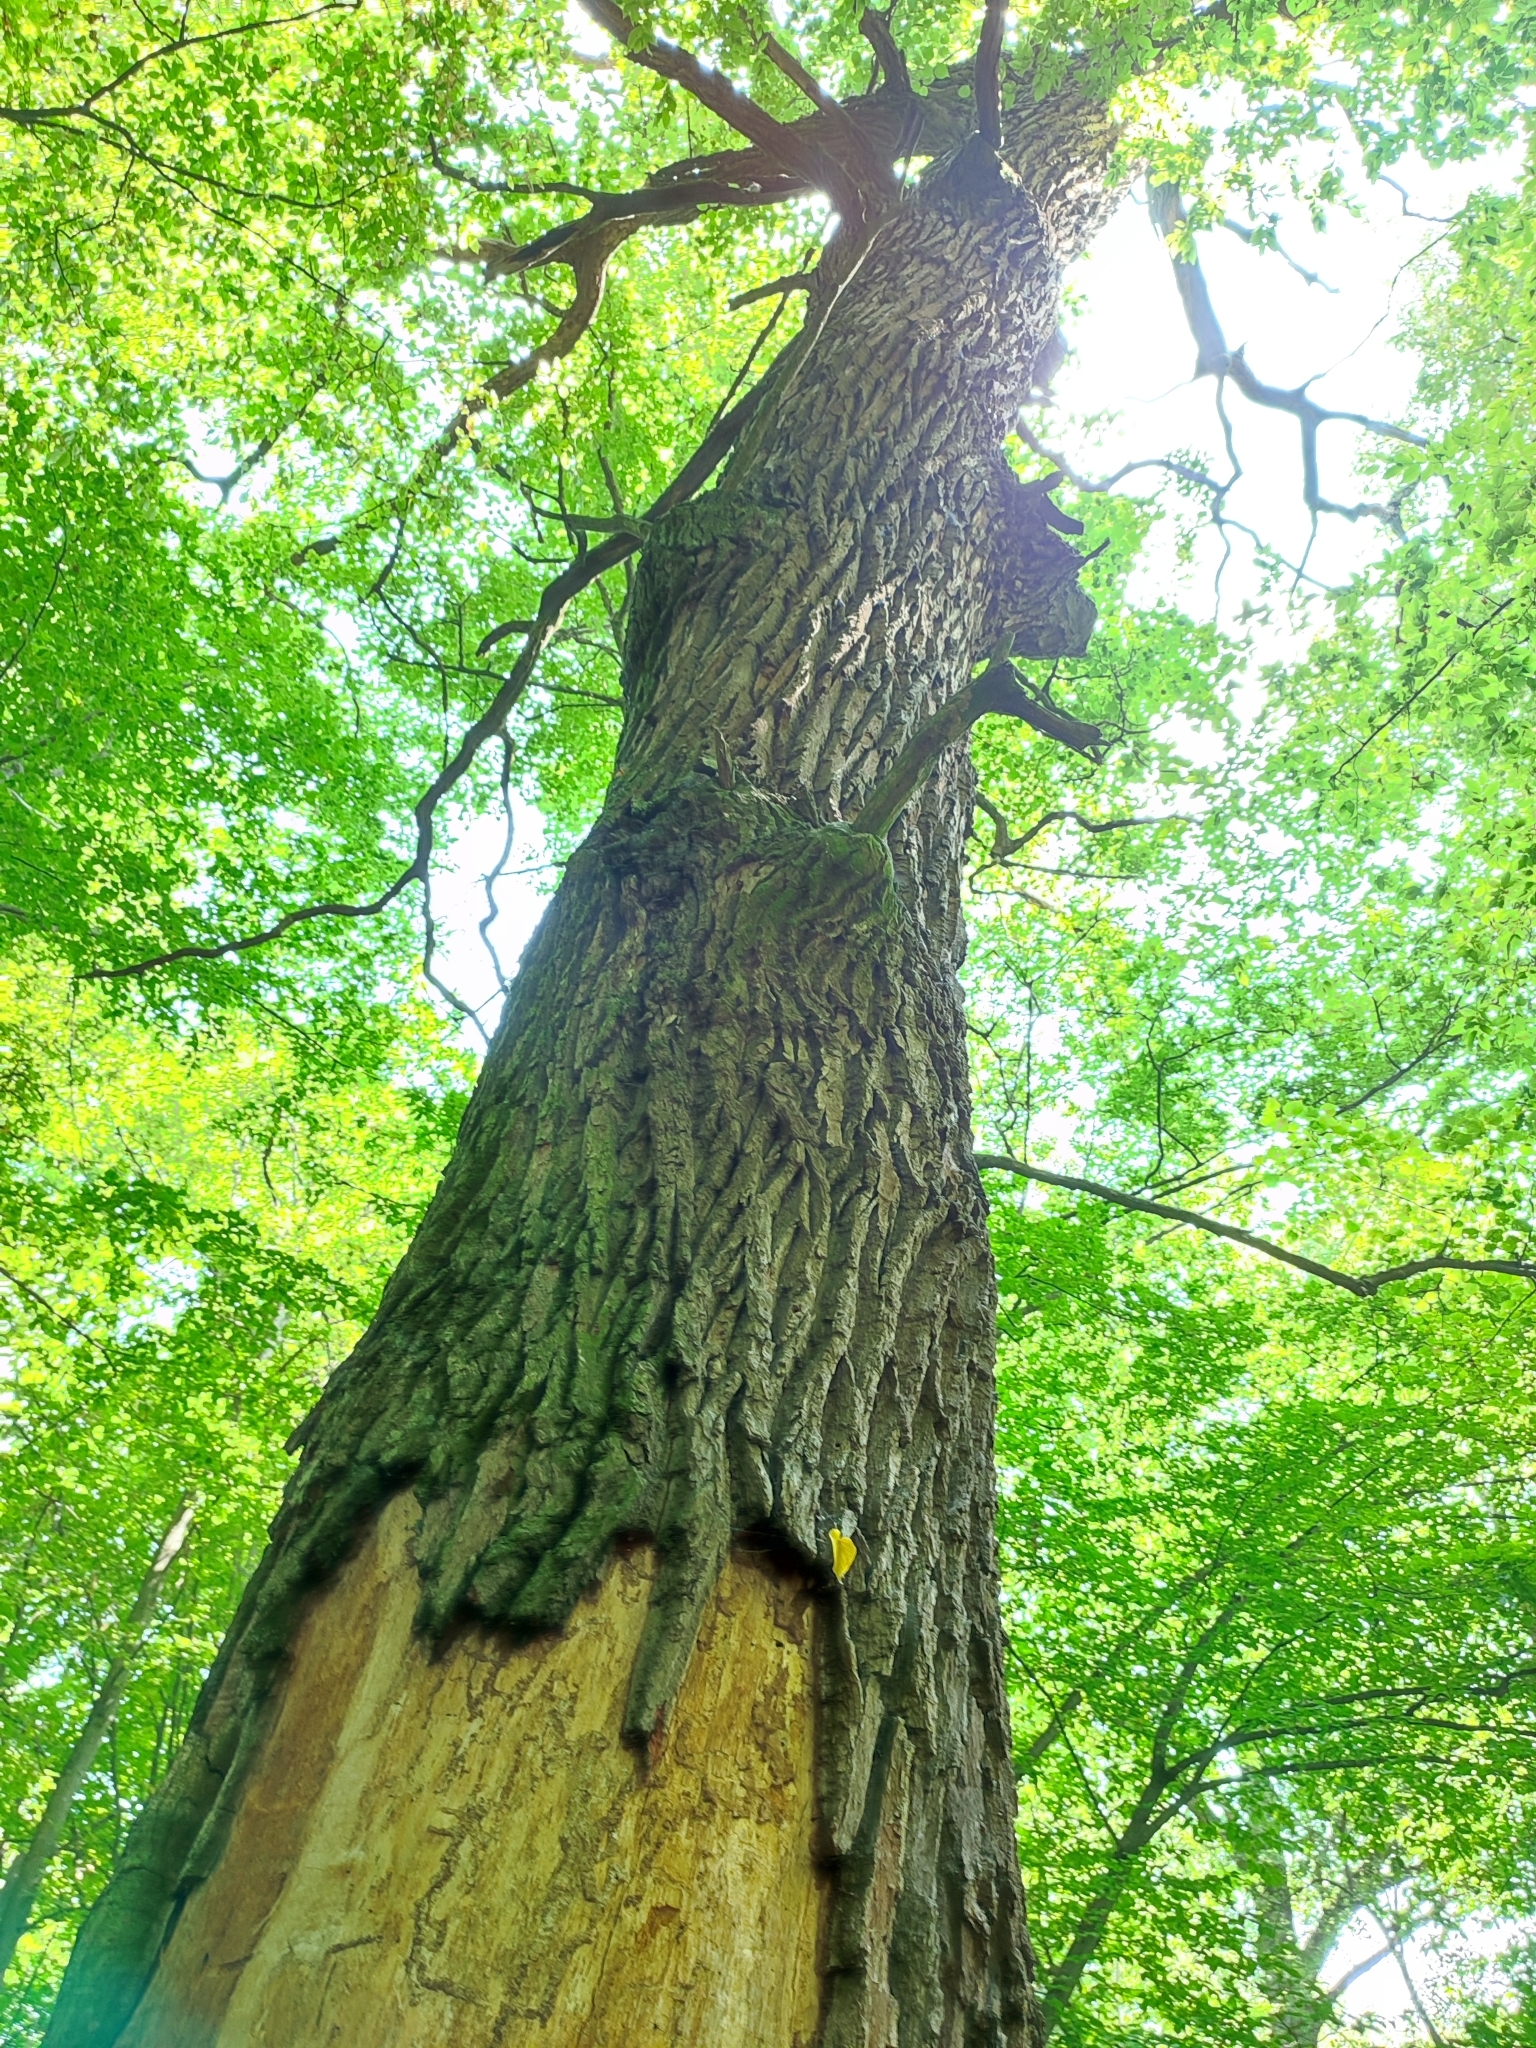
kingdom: Plantae
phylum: Tracheophyta
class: Magnoliopsida
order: Fagales
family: Fagaceae
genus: Quercus
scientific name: Quercus robur
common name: Pedunculate oak
